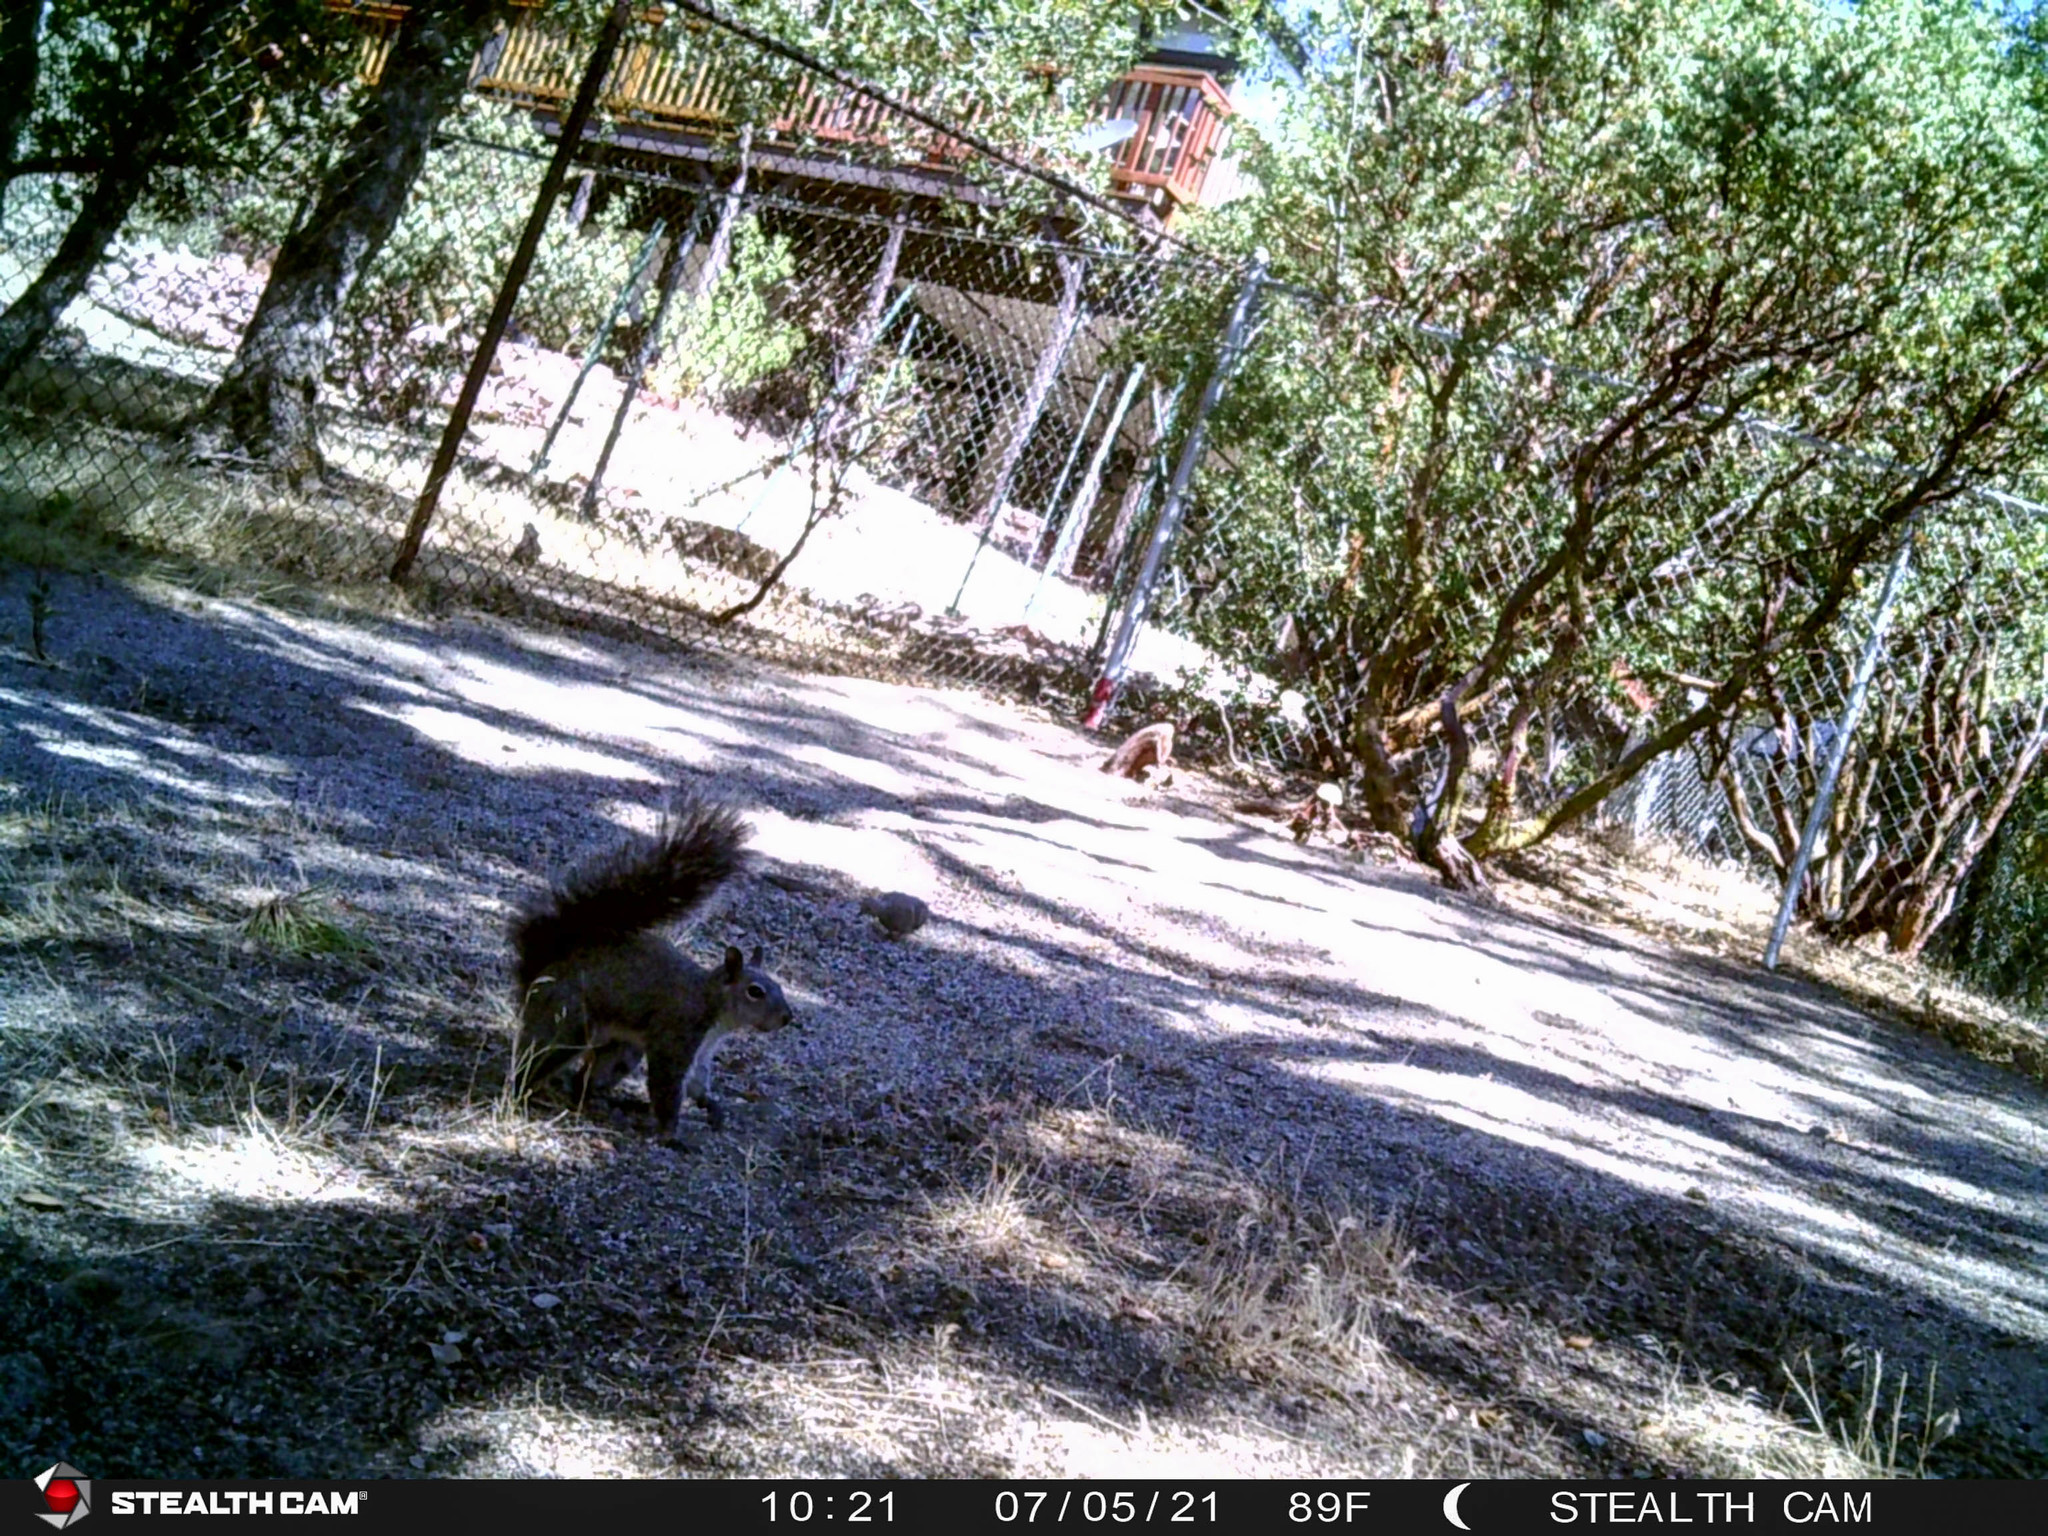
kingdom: Animalia
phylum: Chordata
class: Aves
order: Columbiformes
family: Columbidae
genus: Zenaida
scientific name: Zenaida macroura
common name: Mourning dove
